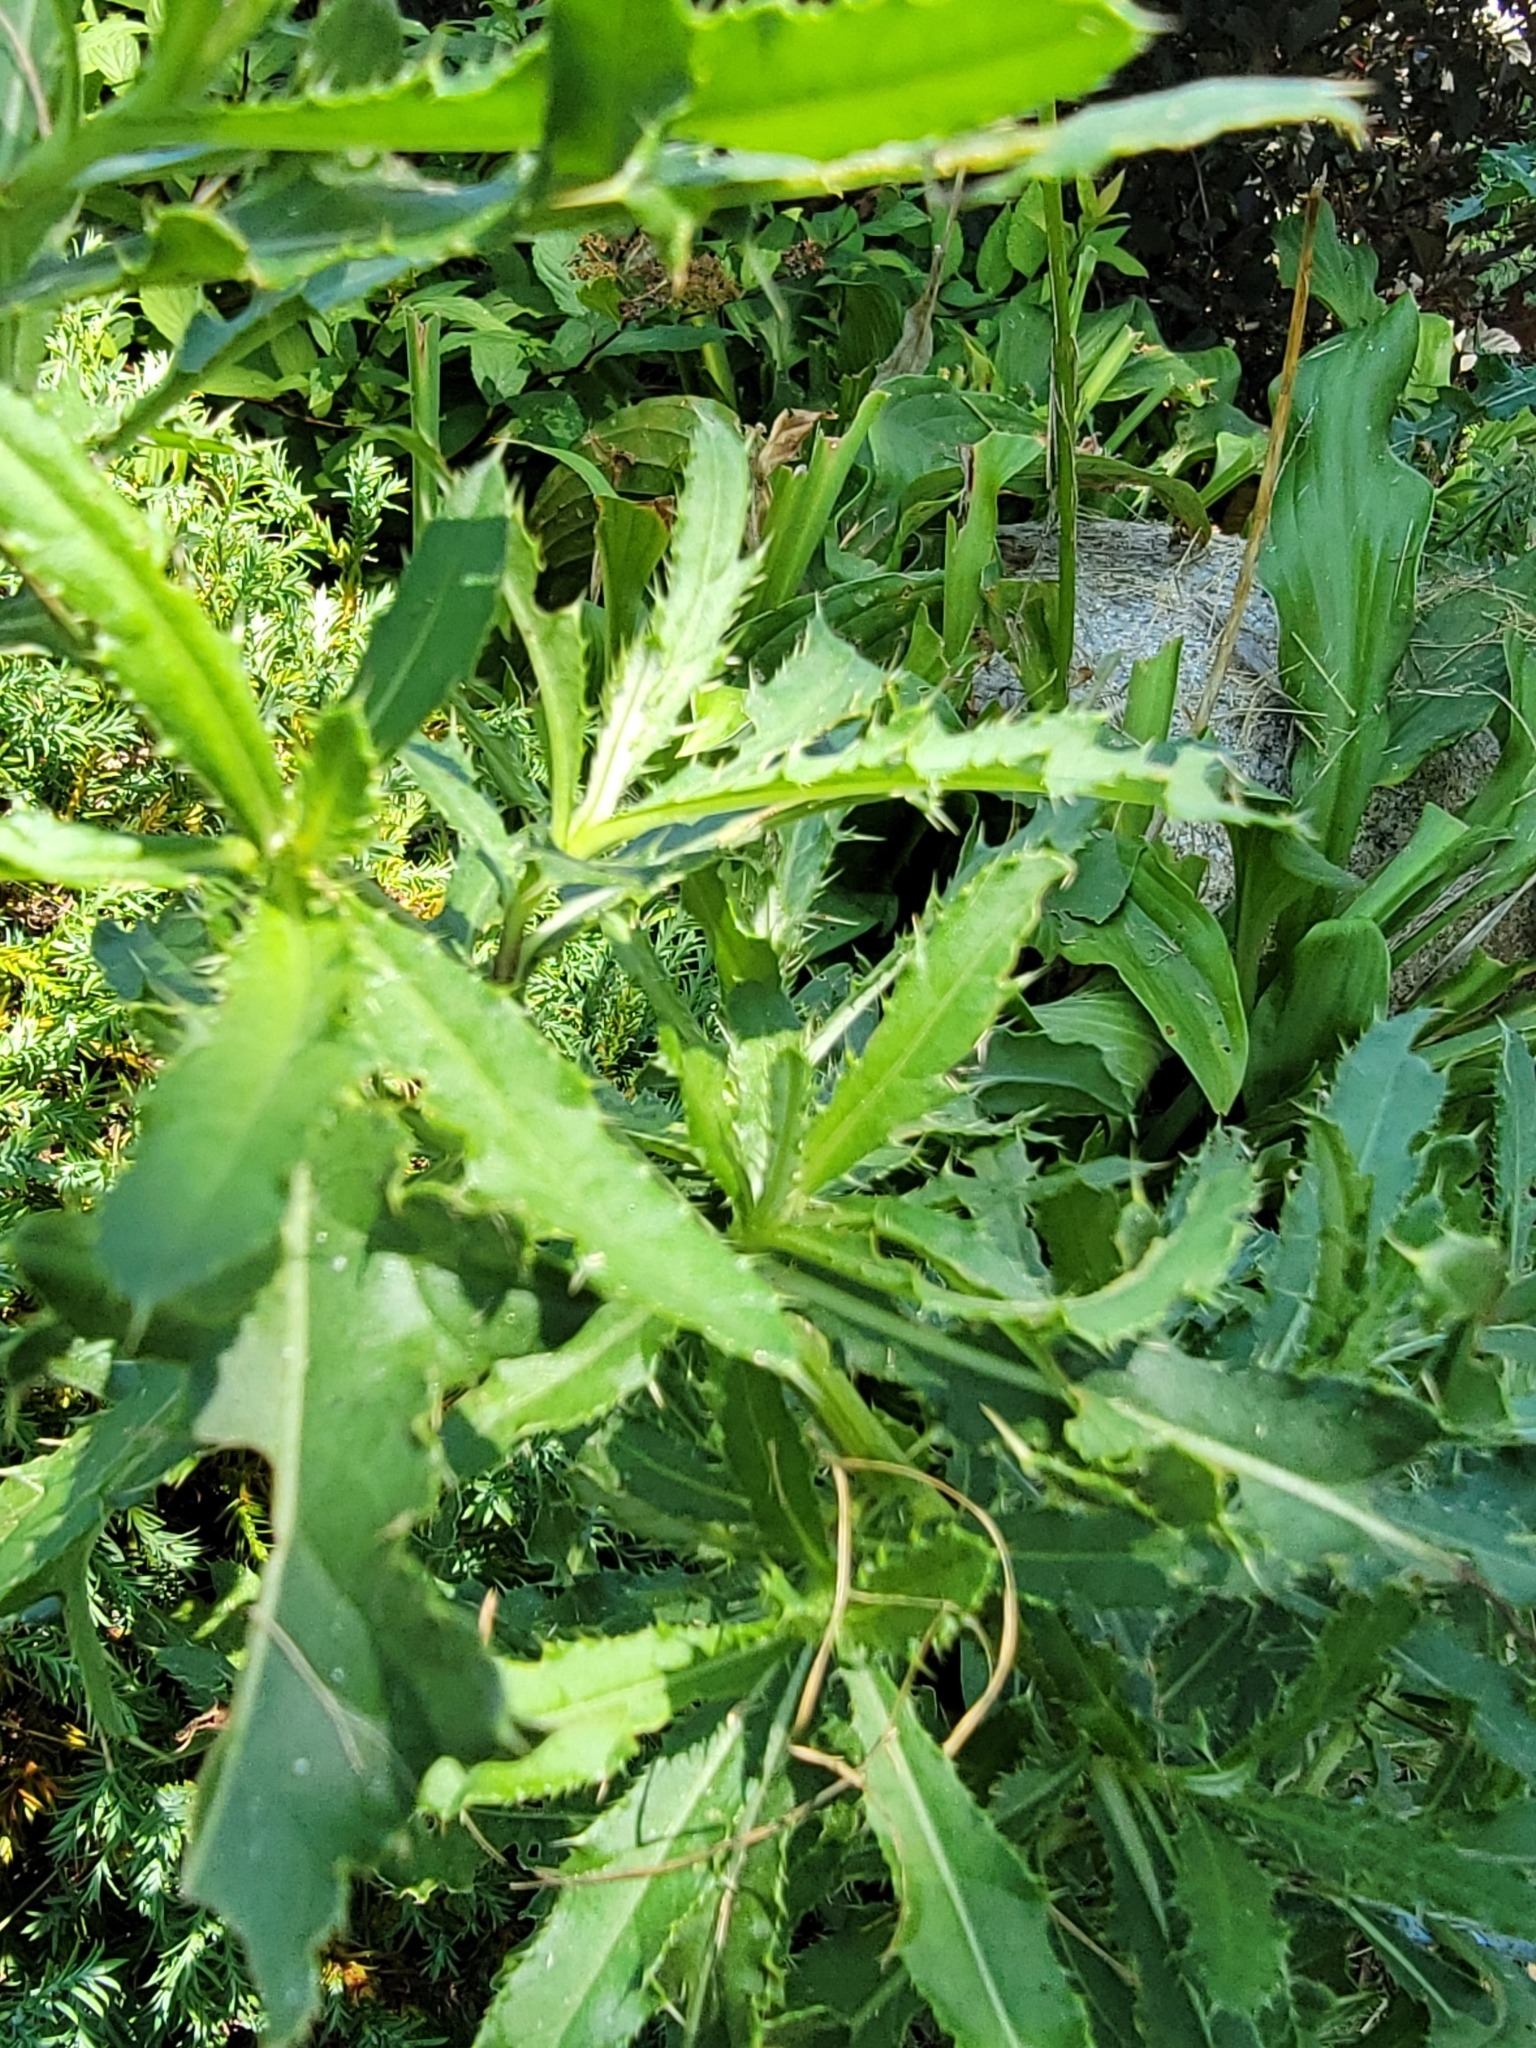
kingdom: Plantae
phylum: Tracheophyta
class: Magnoliopsida
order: Asterales
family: Asteraceae
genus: Cirsium
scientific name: Cirsium arvense
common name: Creeping thistle
